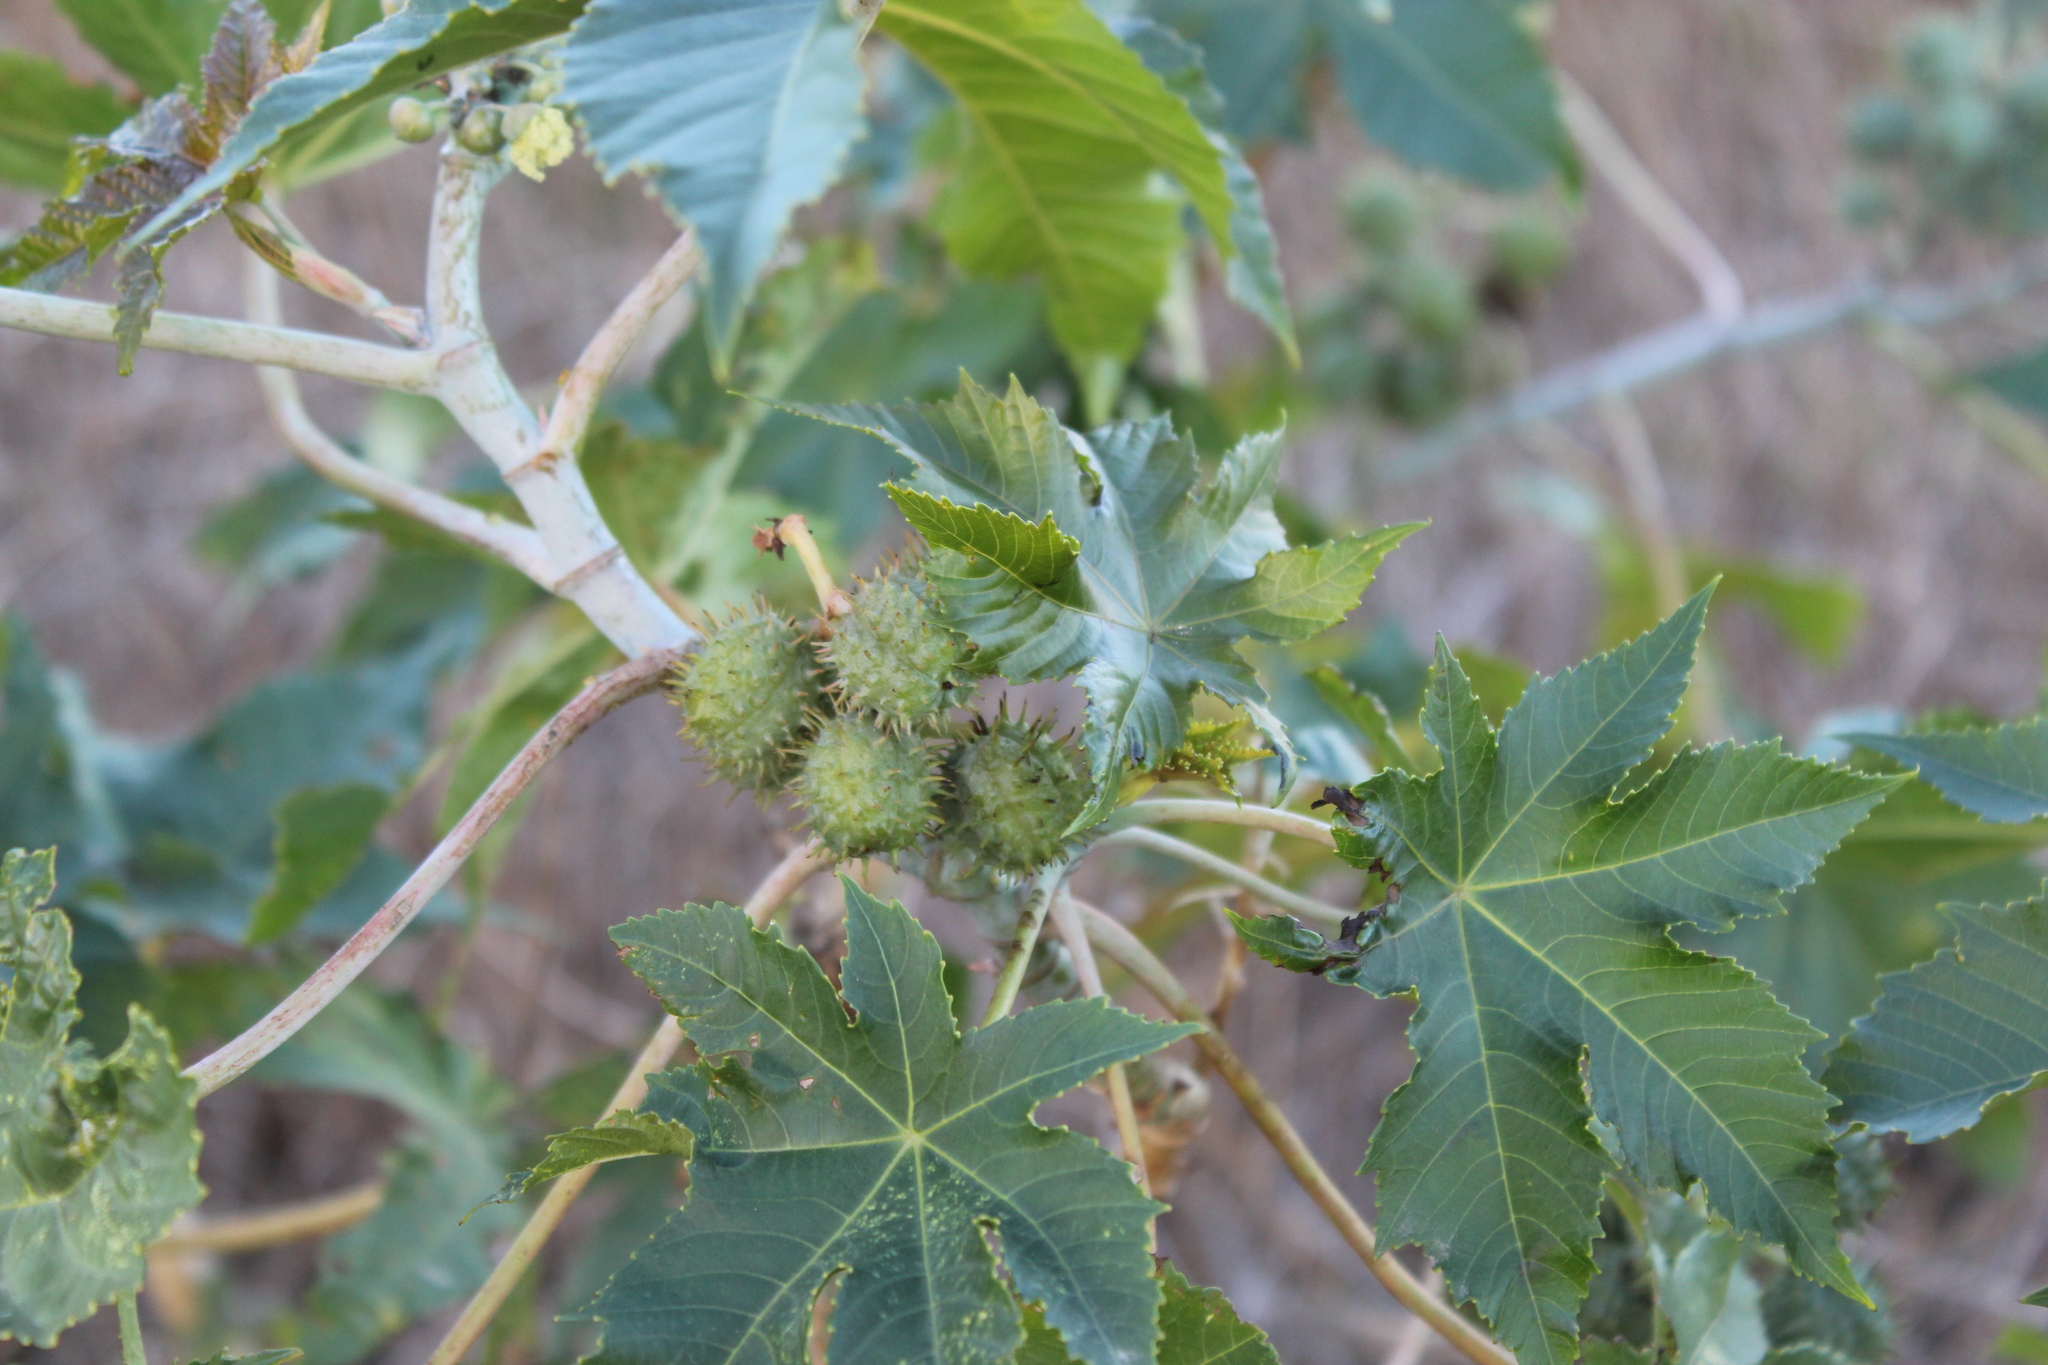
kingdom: Plantae
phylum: Tracheophyta
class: Magnoliopsida
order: Malpighiales
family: Euphorbiaceae
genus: Ricinus
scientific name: Ricinus communis
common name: Castor-oil-plant
